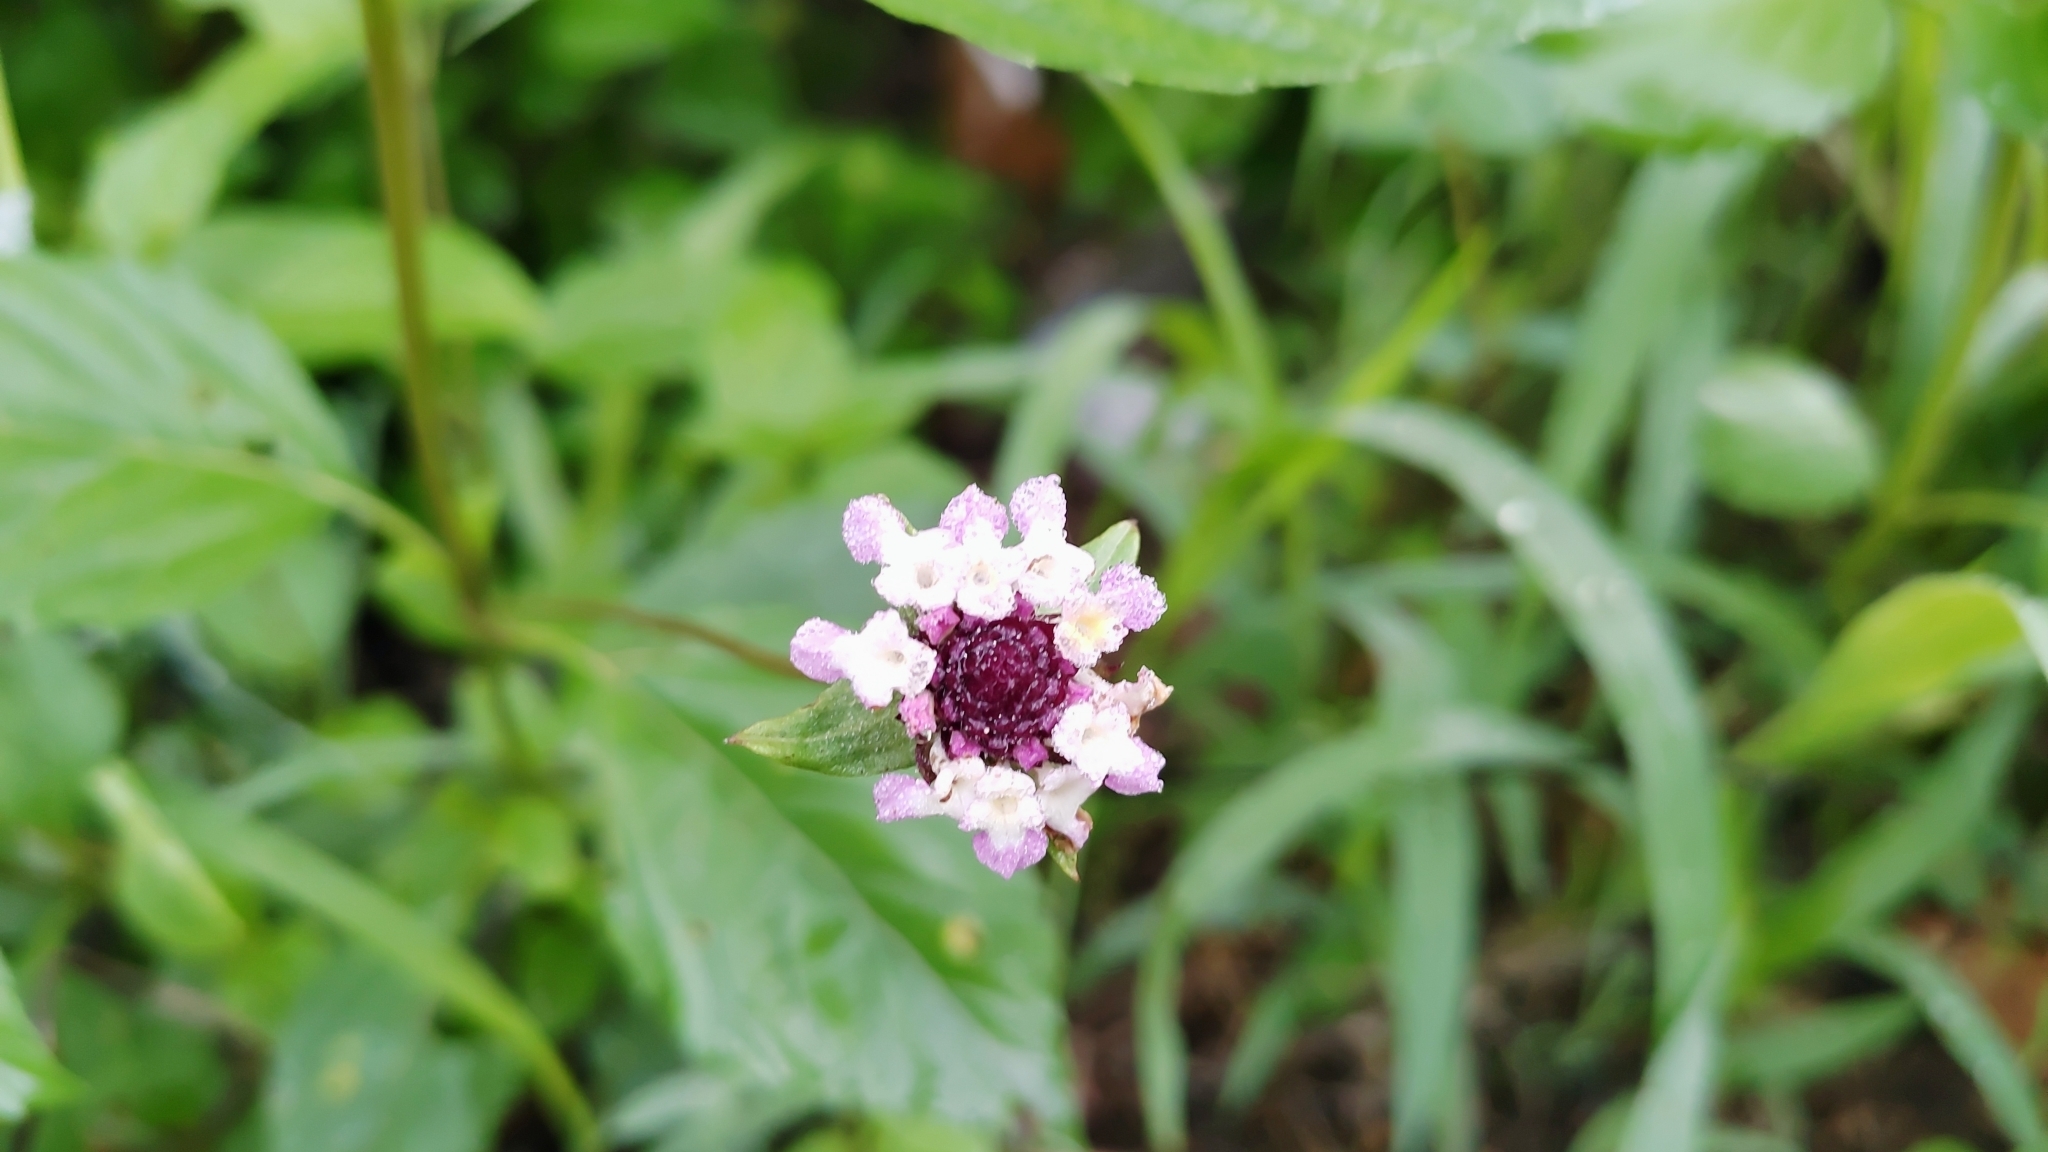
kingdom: Plantae
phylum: Tracheophyta
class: Magnoliopsida
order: Lamiales
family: Verbenaceae
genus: Phyla
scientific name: Phyla lanceolata
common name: Northern fogfruit
